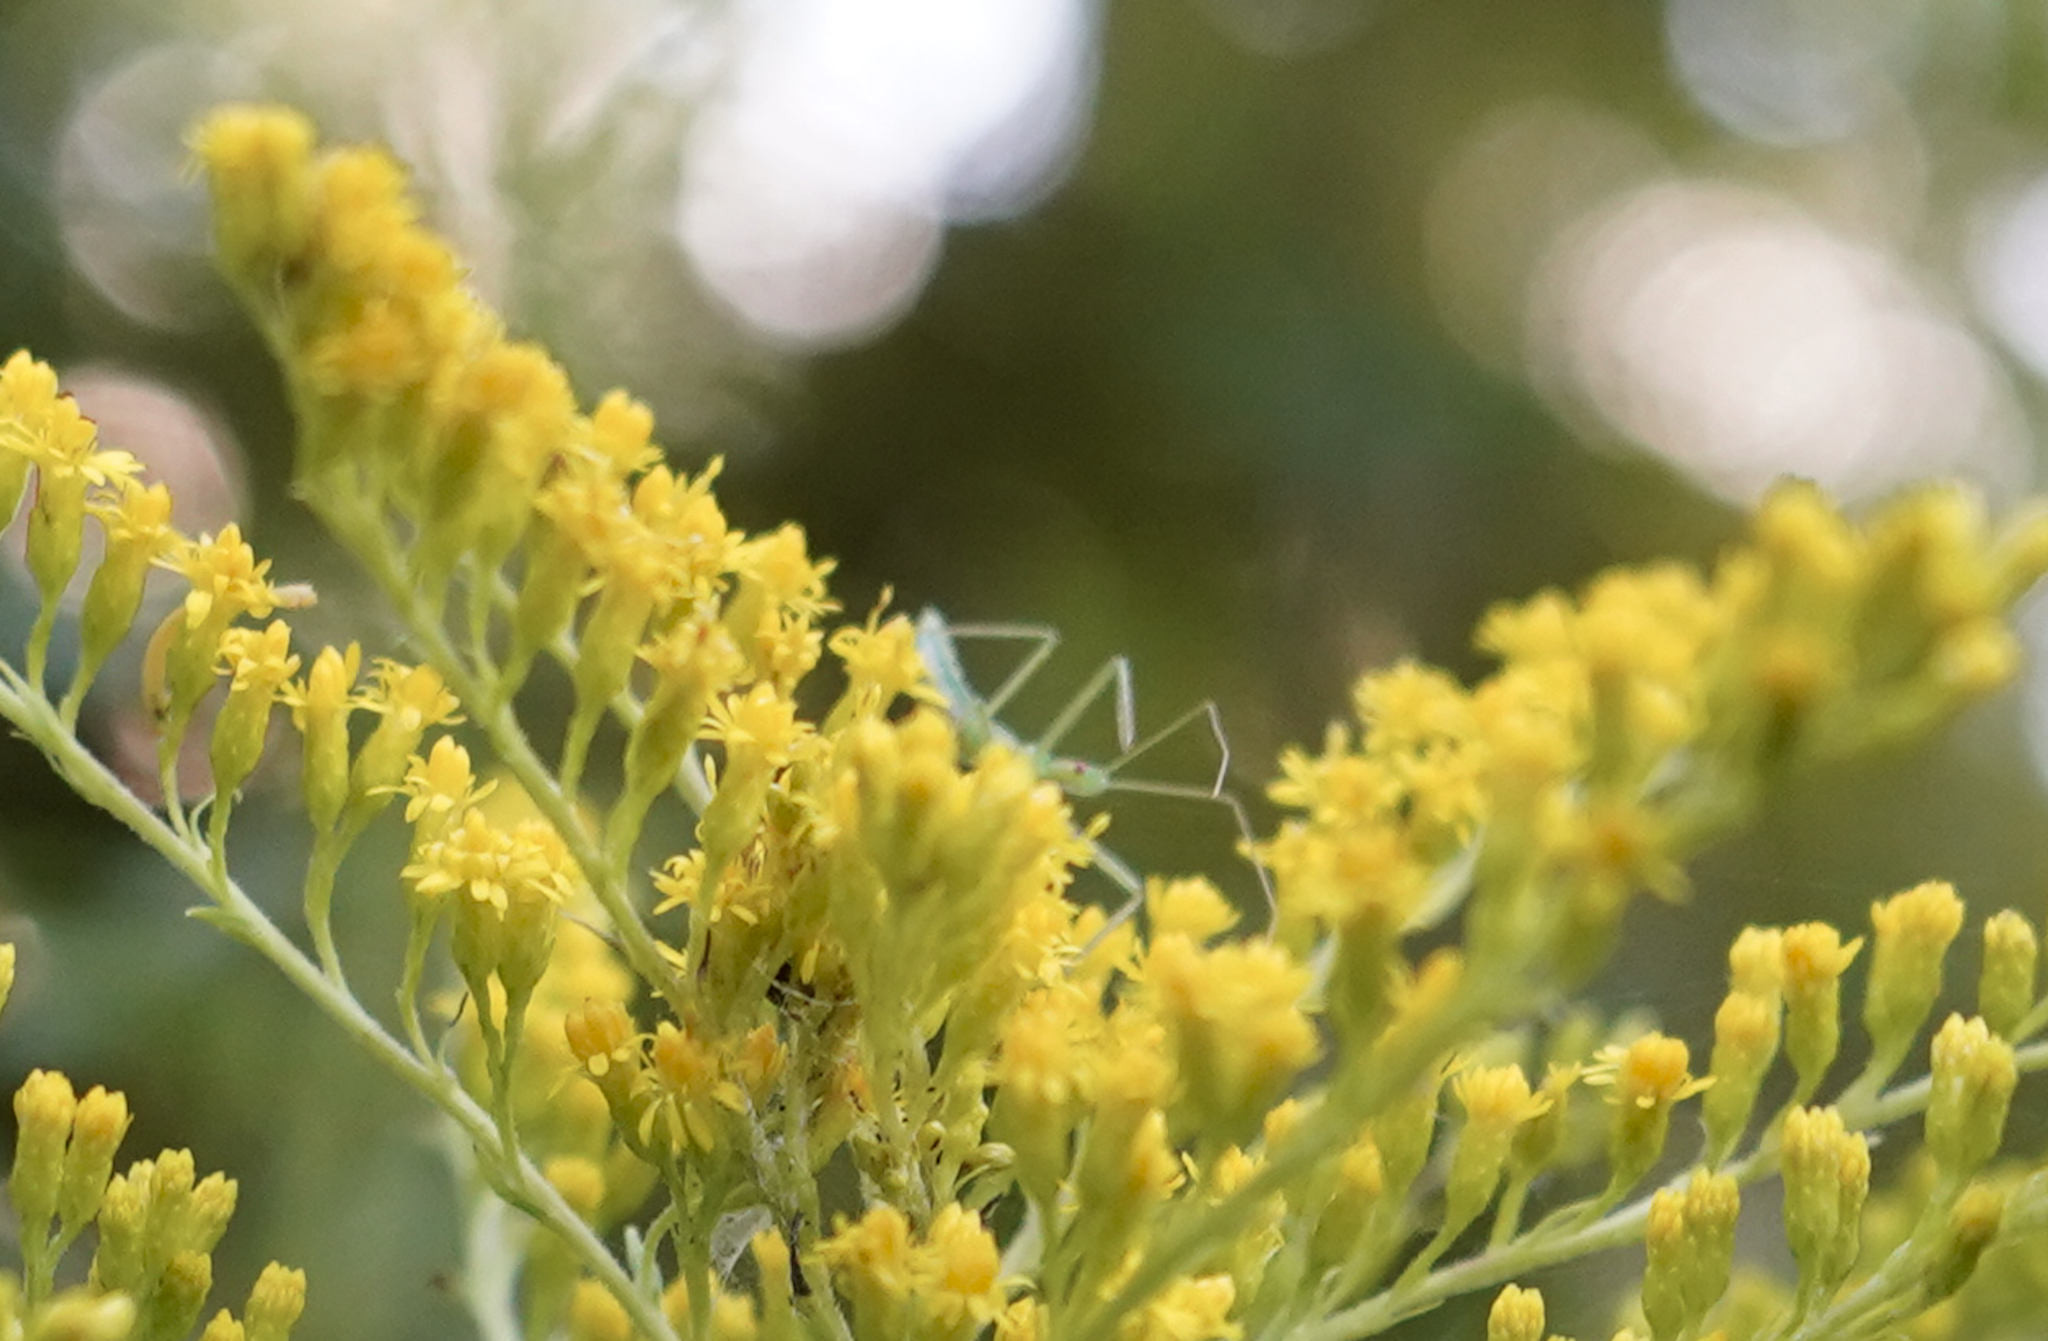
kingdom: Animalia
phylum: Arthropoda
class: Insecta
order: Hemiptera
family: Reduviidae
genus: Zelus
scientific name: Zelus luridus
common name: Pale green assassin bug
